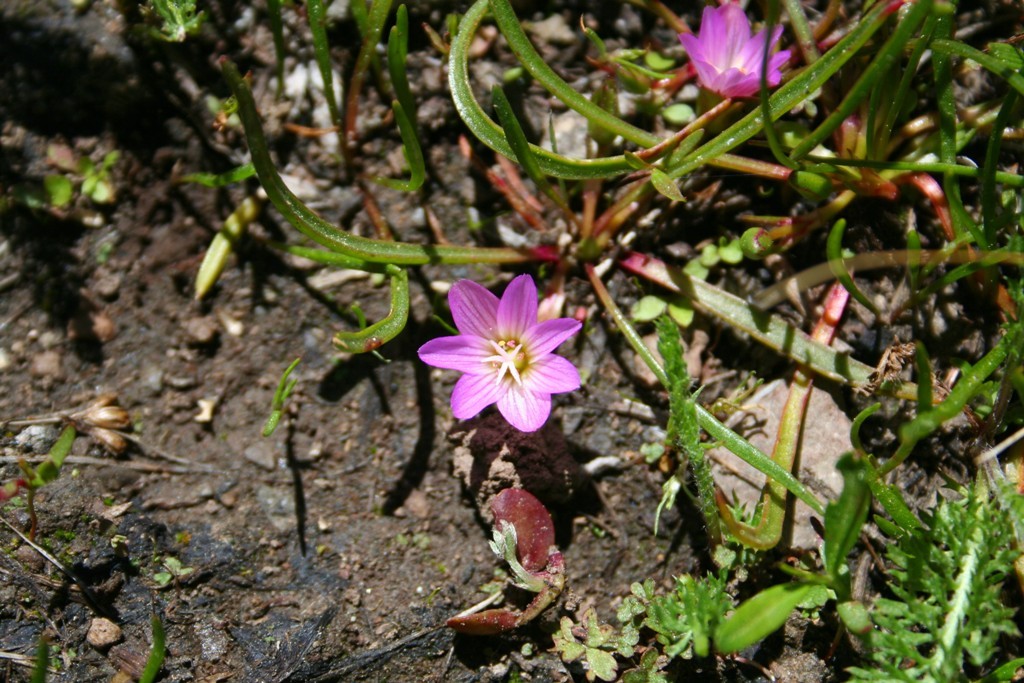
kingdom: Plantae
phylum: Tracheophyta
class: Magnoliopsida
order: Caryophyllales
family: Montiaceae
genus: Lewisia
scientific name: Lewisia pygmaea
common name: Alpine bitterroot
